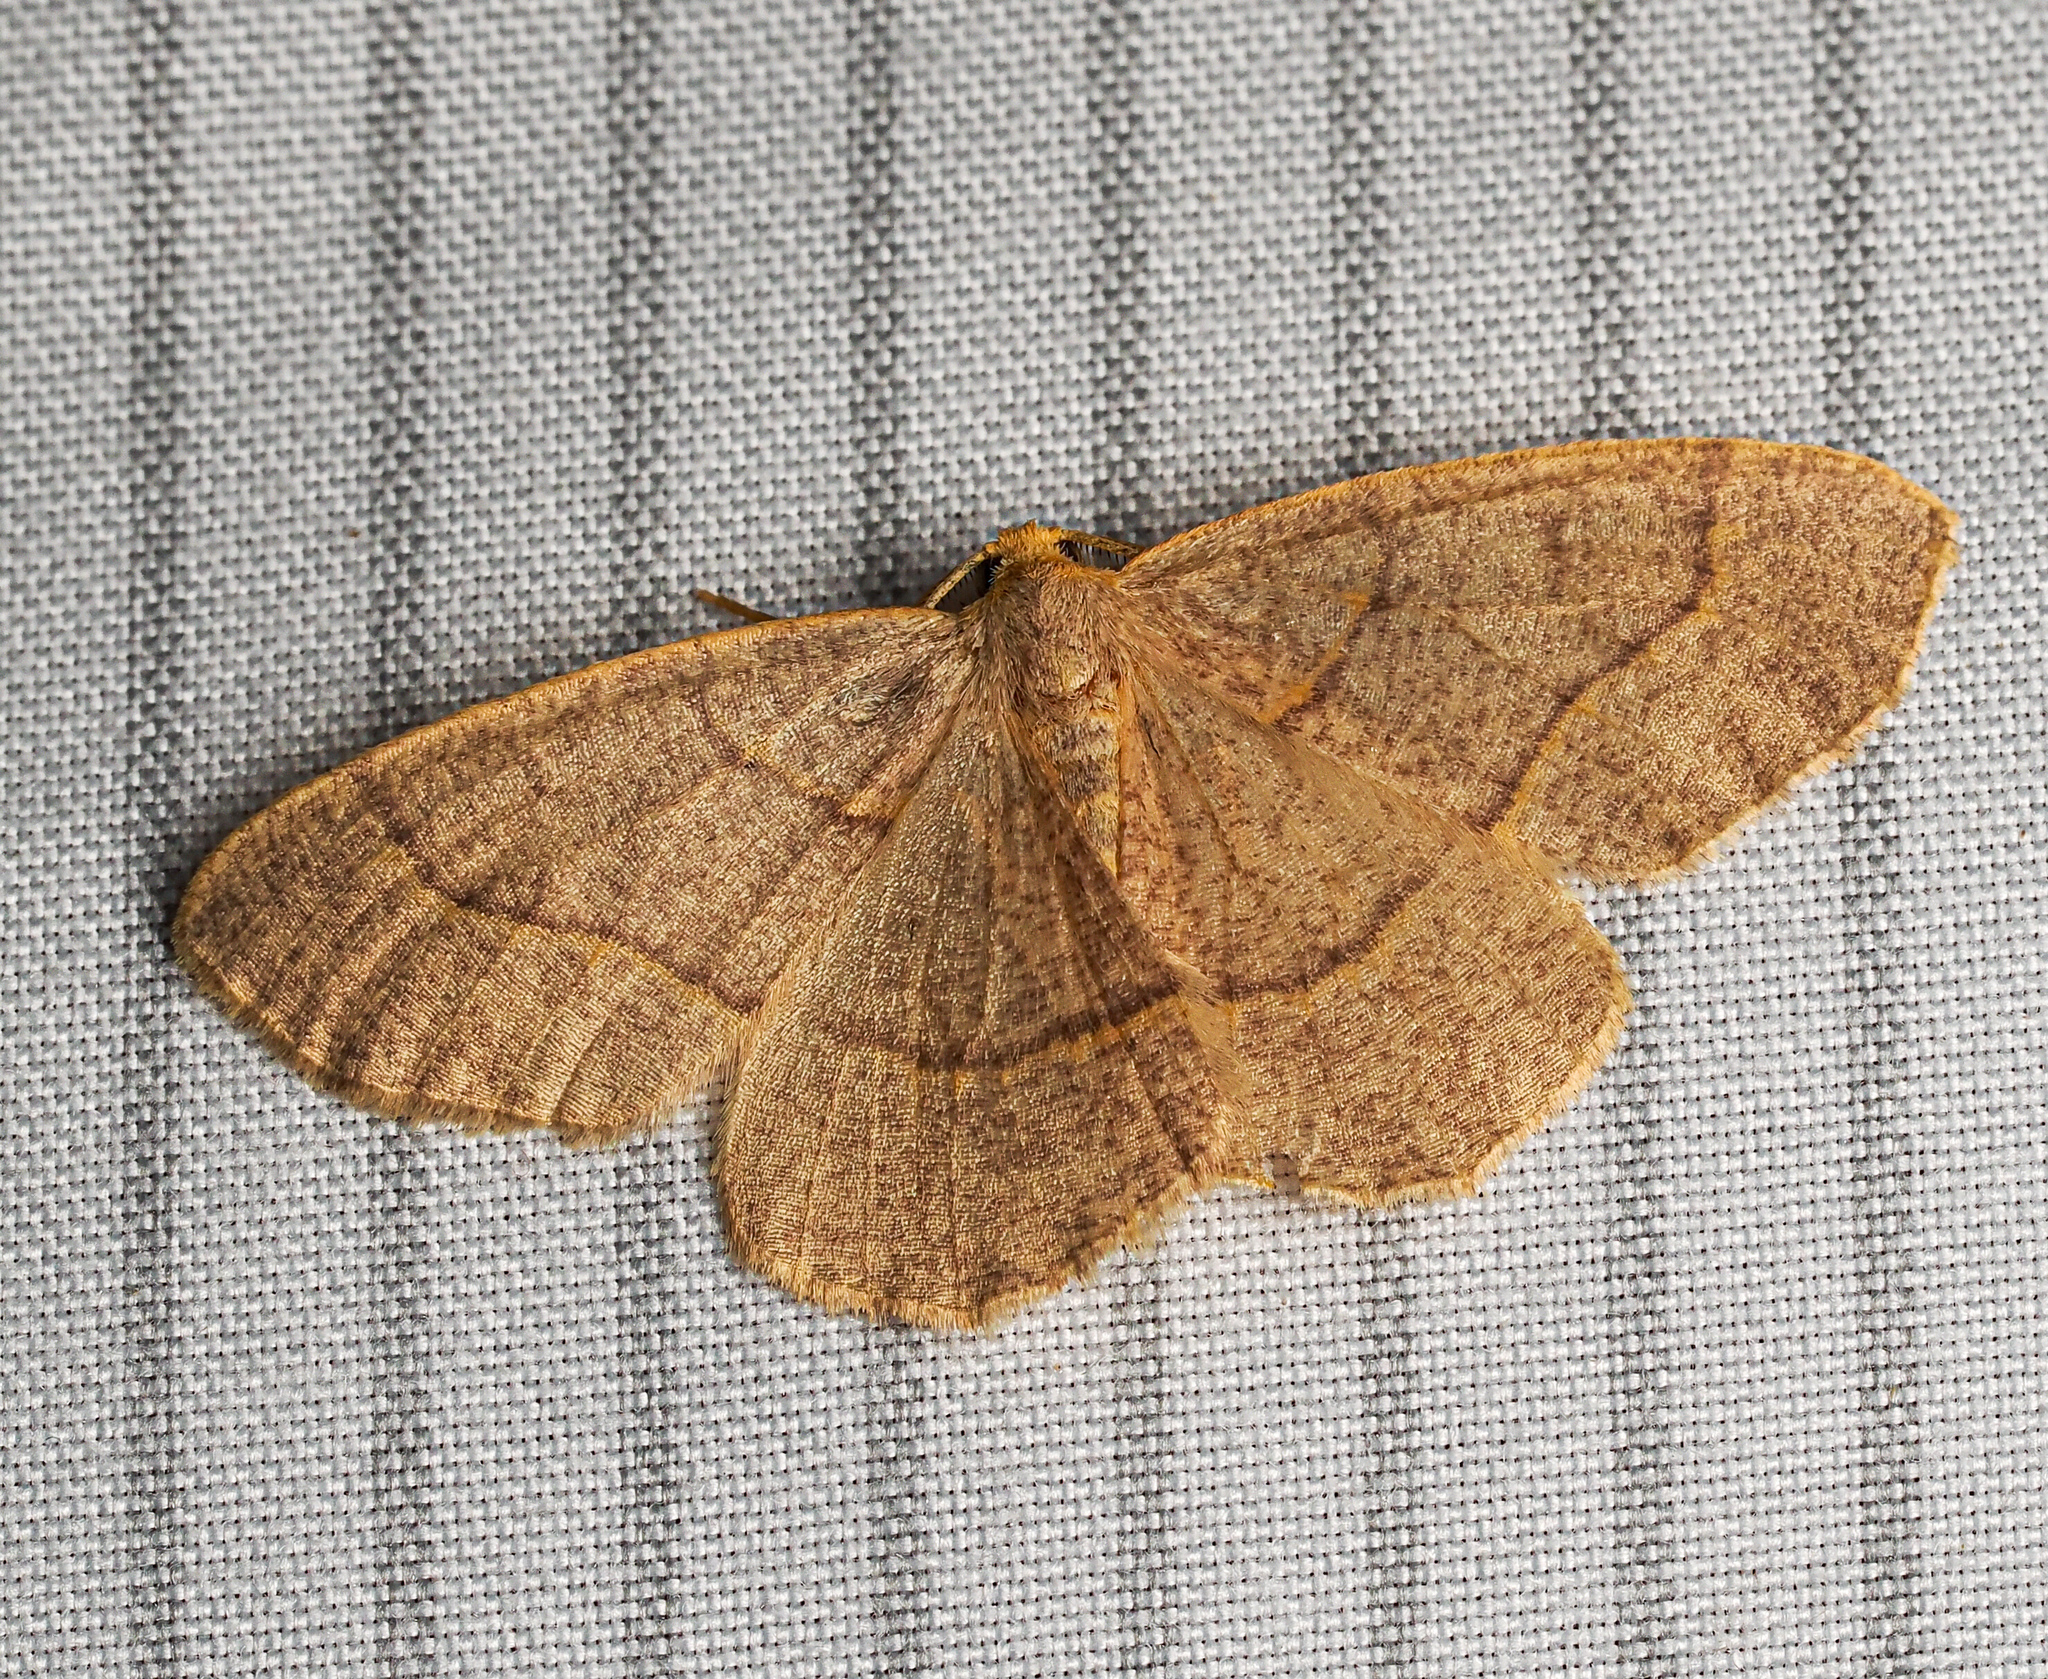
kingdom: Animalia
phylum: Arthropoda
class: Insecta
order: Lepidoptera
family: Geometridae
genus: Lambdina
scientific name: Lambdina fervidaria
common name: Curve-lined looper moth
